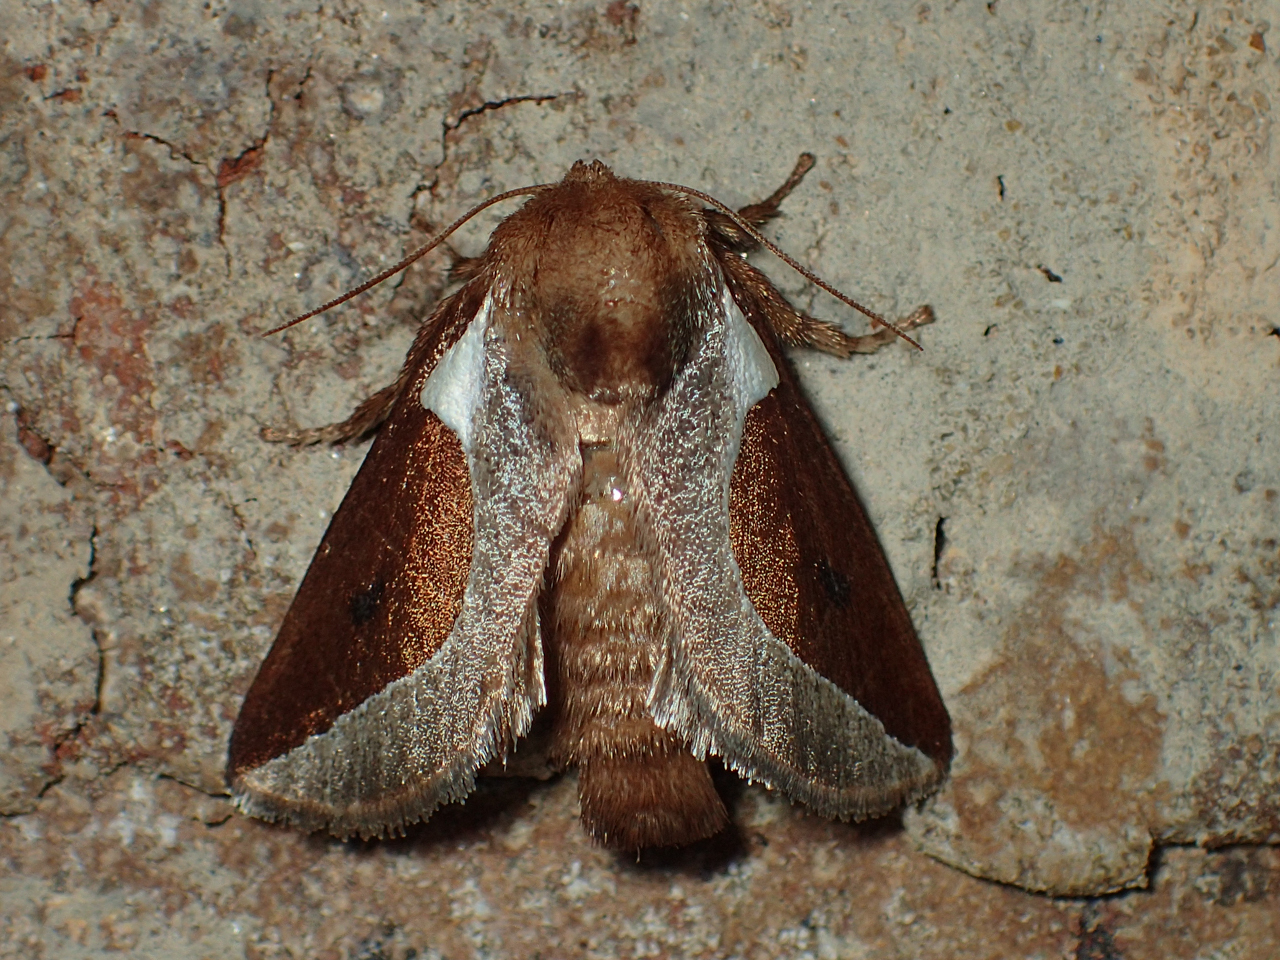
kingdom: Animalia
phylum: Arthropoda
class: Insecta
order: Lepidoptera
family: Limacodidae
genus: Prolimacodes
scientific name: Prolimacodes badia
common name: Skiff moth
